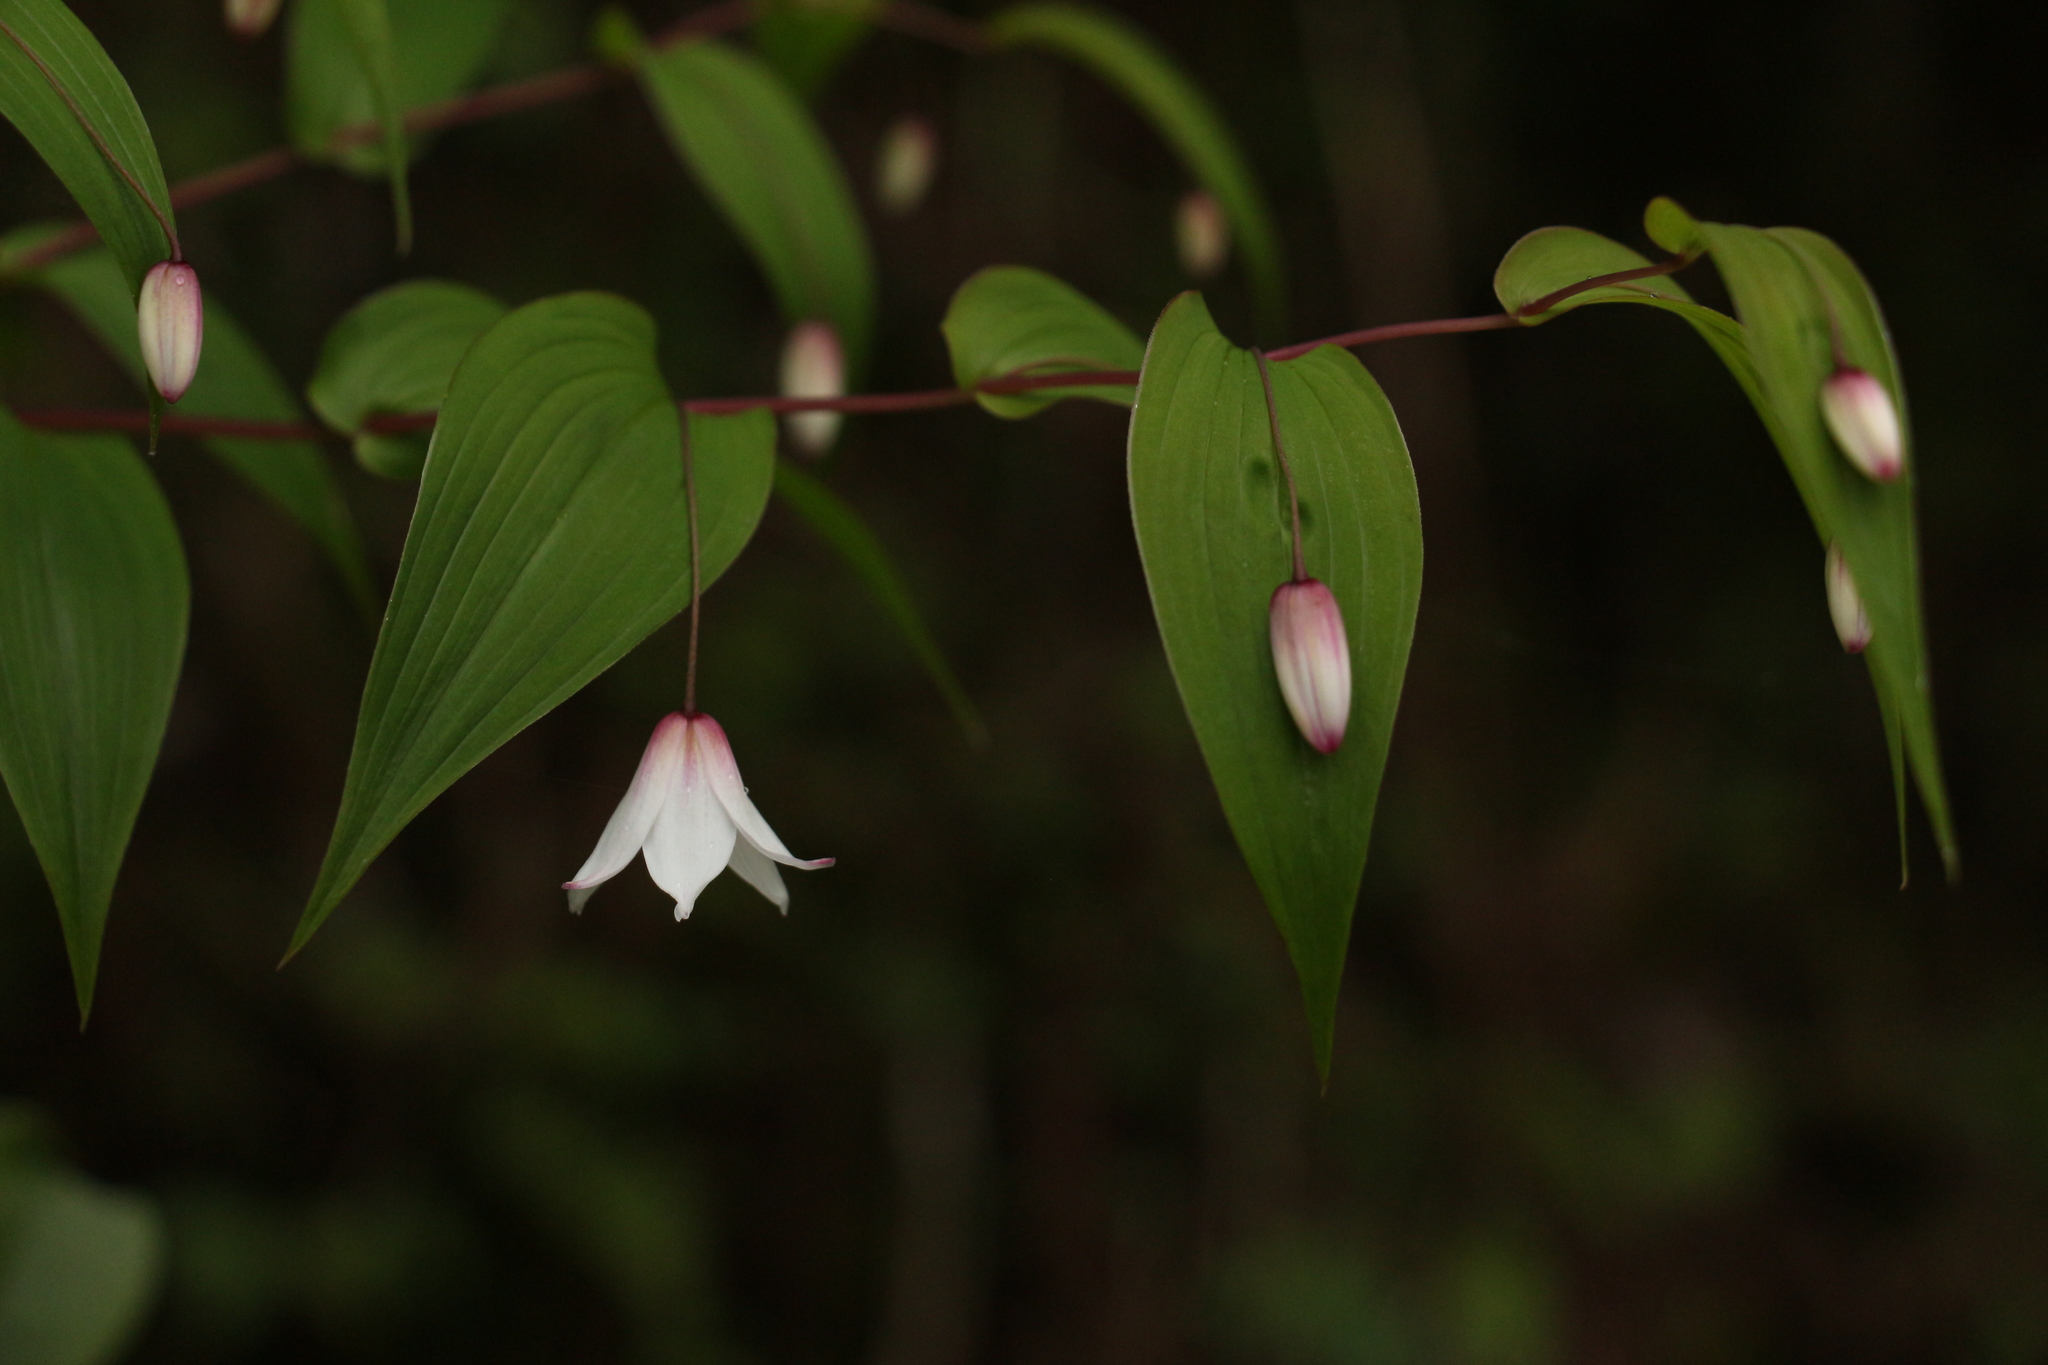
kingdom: Plantae
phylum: Tracheophyta
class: Liliopsida
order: Liliales
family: Liliaceae
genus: Streptopus
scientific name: Streptopus simplex
